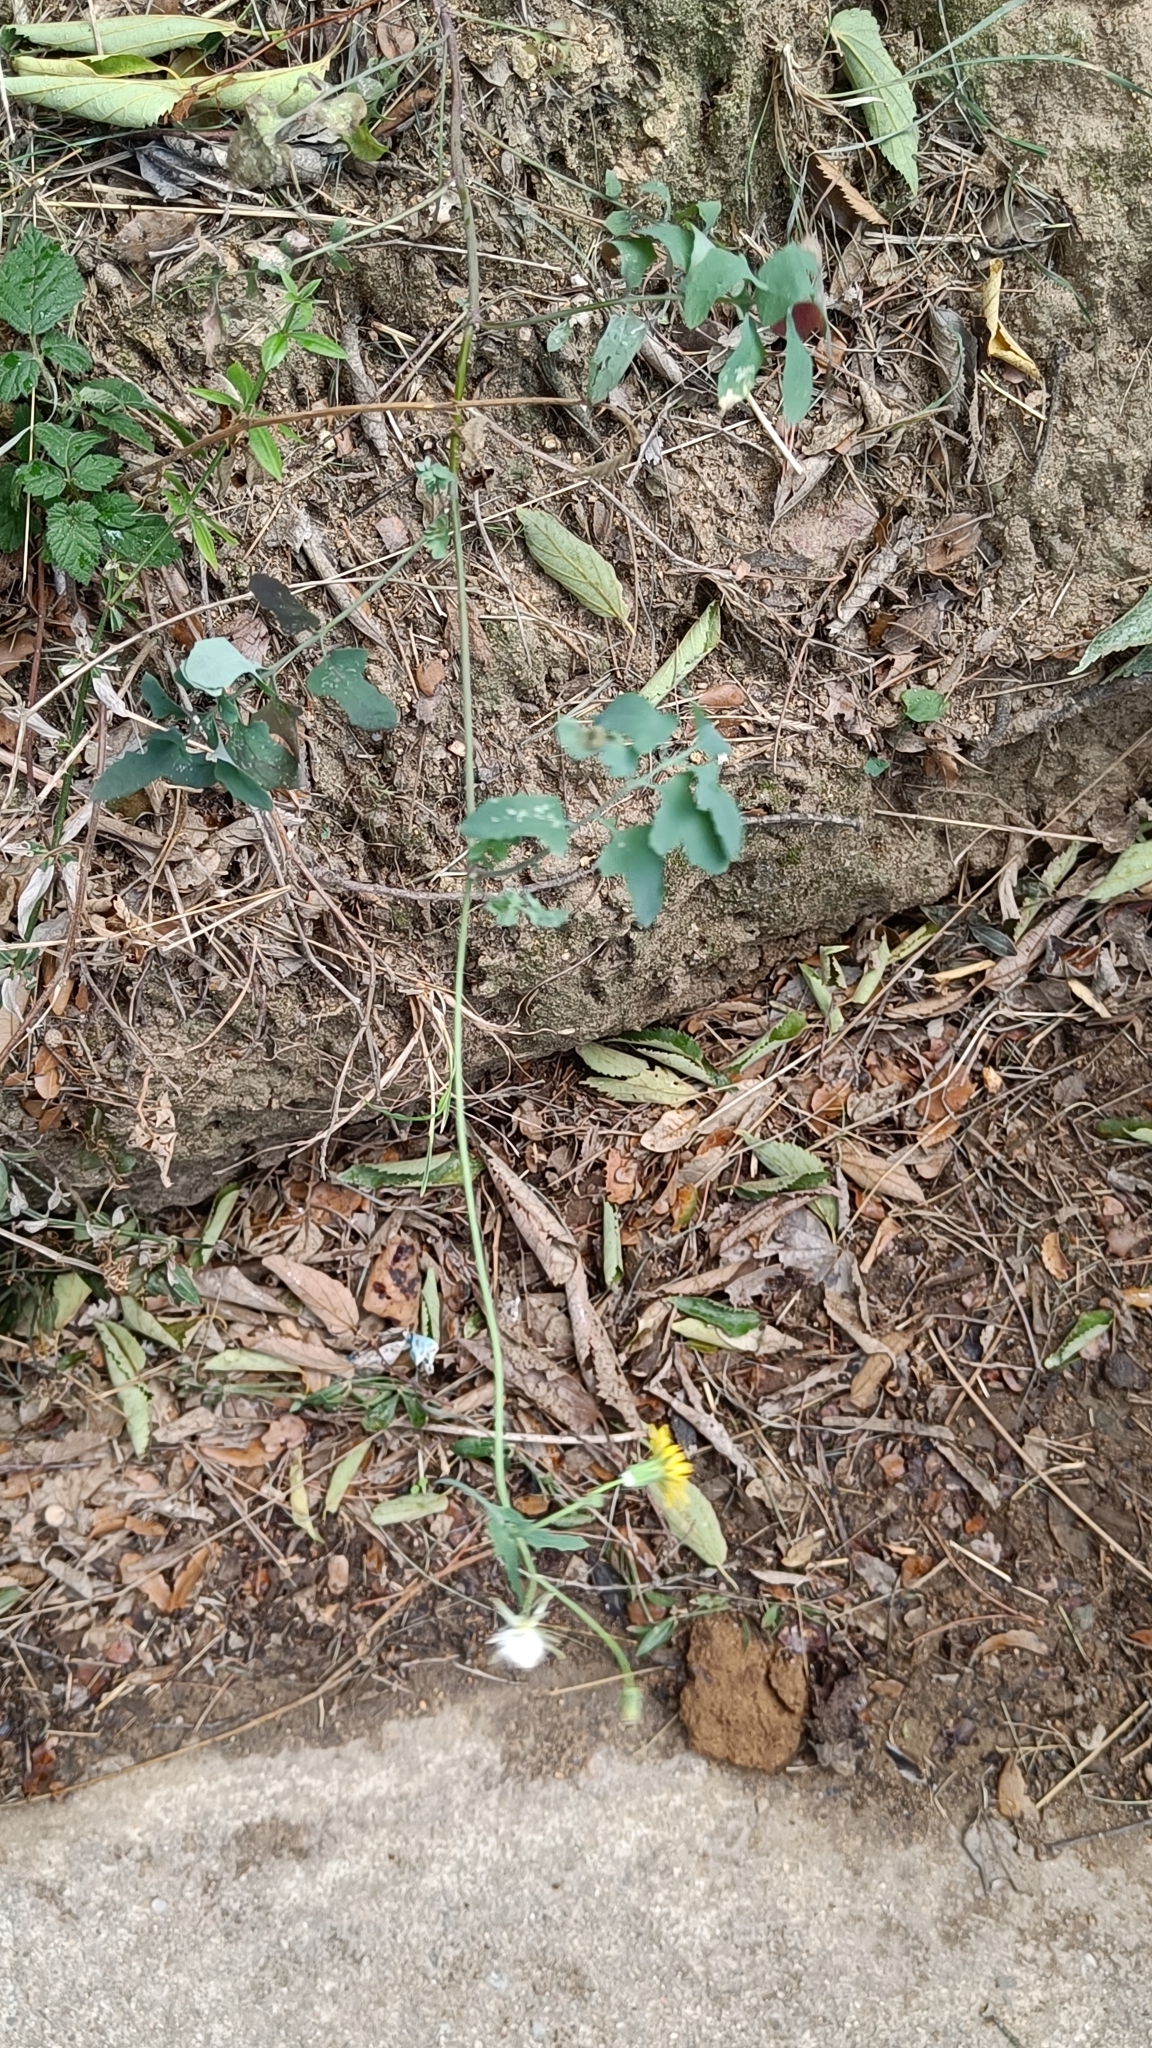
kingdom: Plantae
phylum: Tracheophyta
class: Magnoliopsida
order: Asterales
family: Asteraceae
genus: Sonchus
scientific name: Sonchus tenerrimus
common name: Clammy sowthistle
